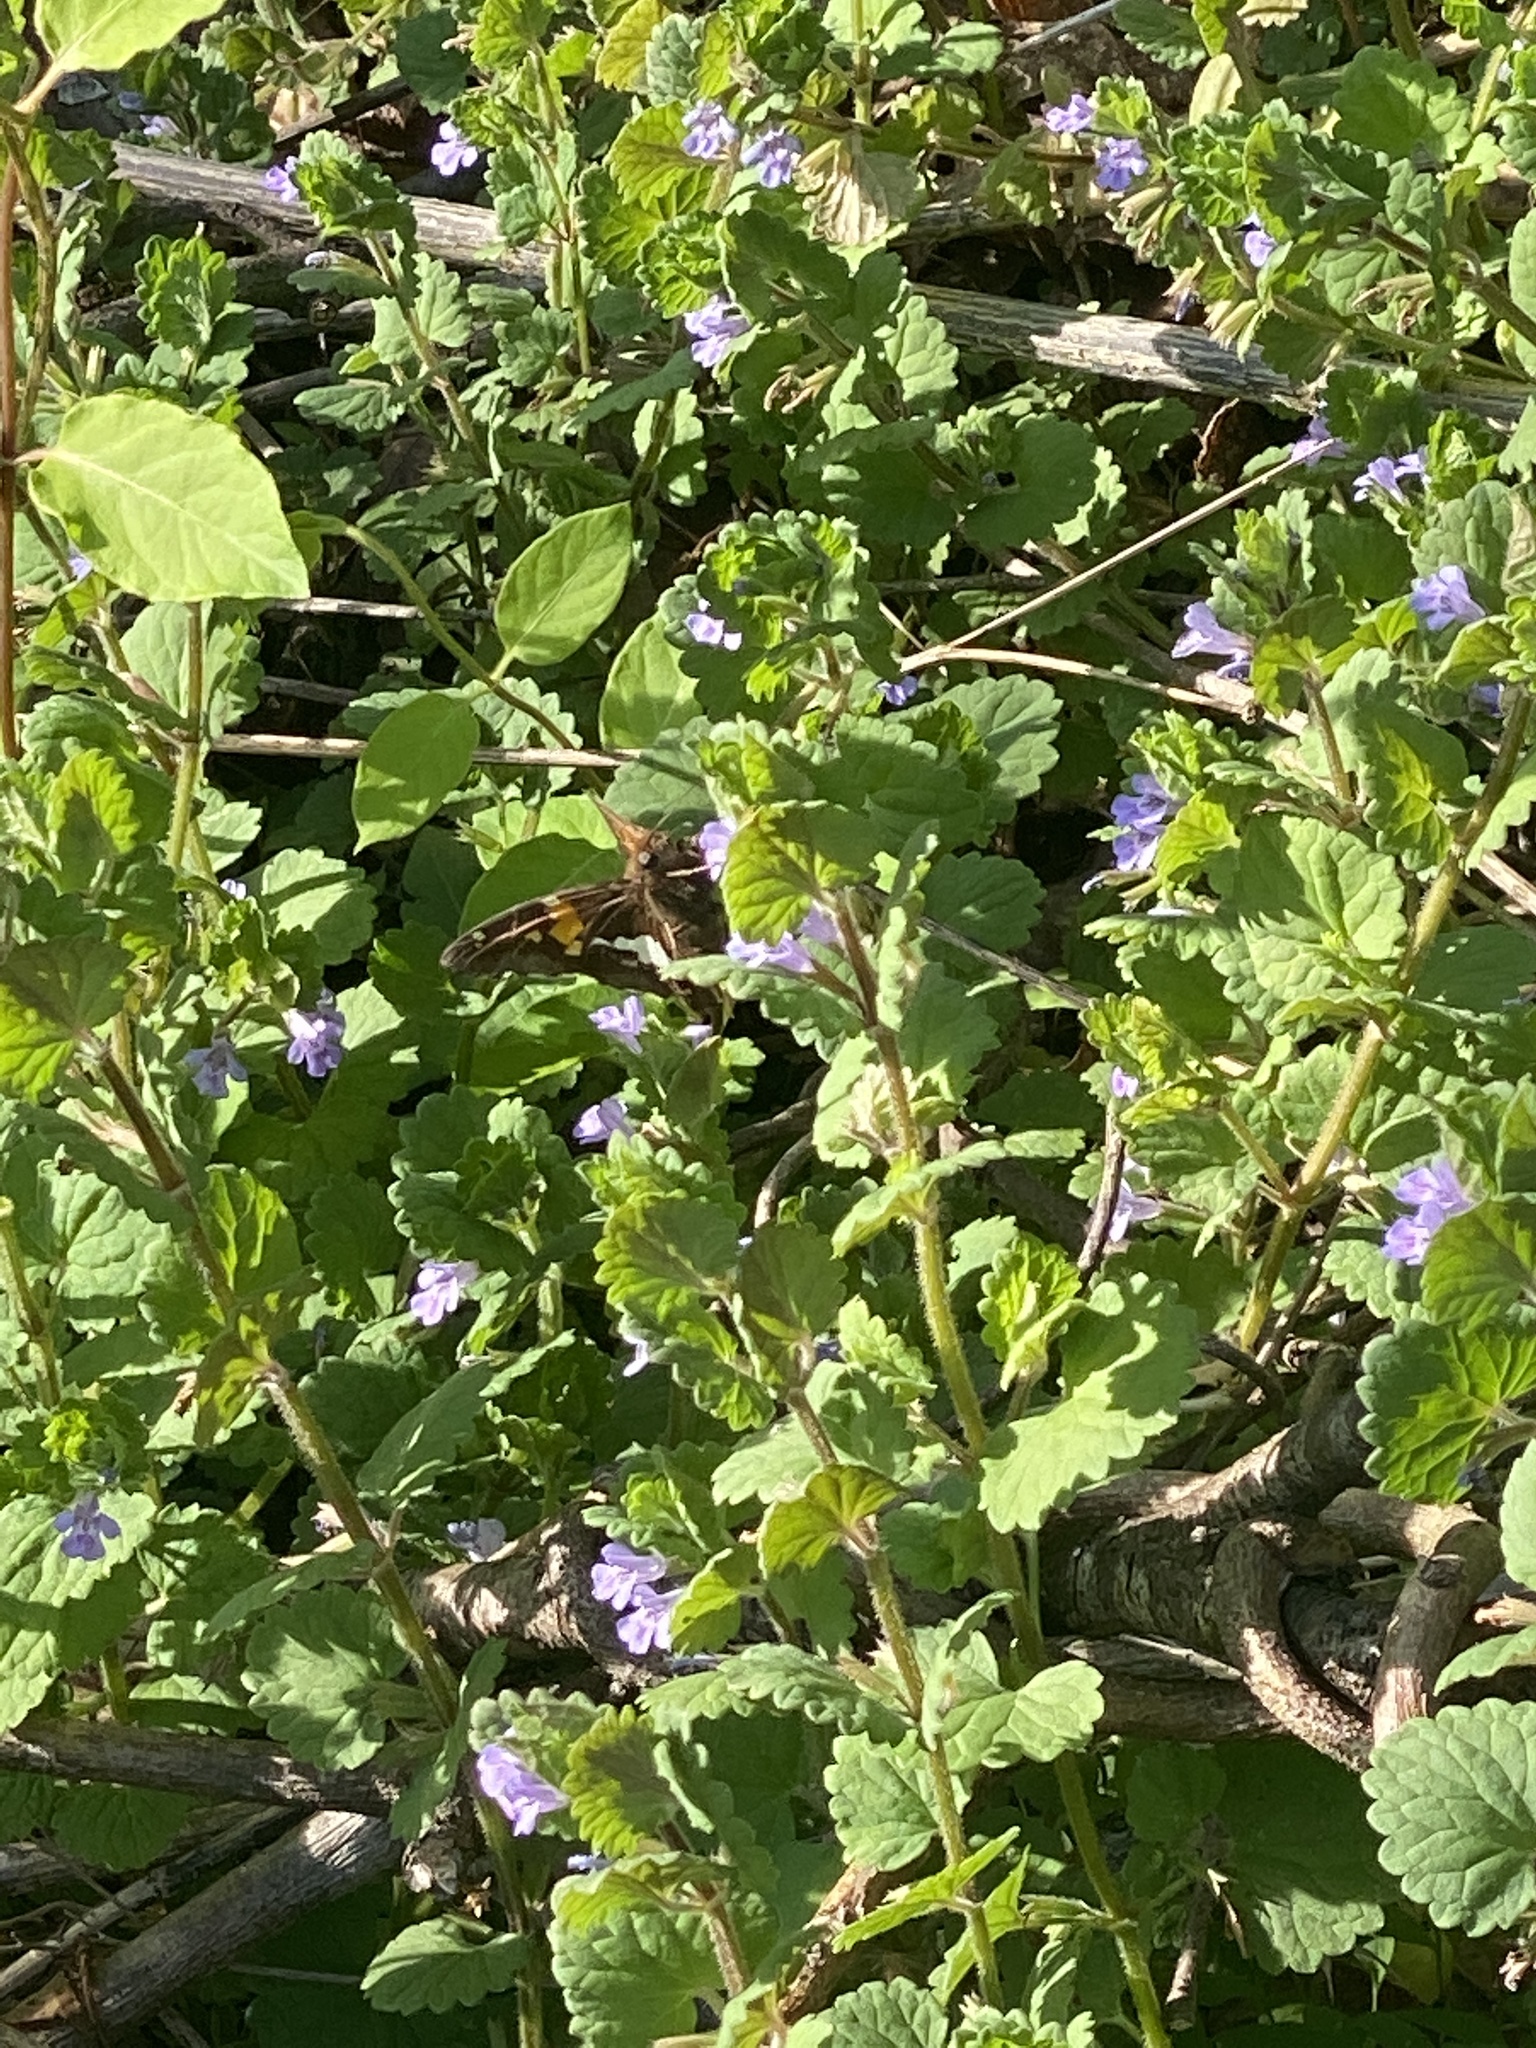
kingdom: Animalia
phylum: Arthropoda
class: Insecta
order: Lepidoptera
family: Hesperiidae
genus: Epargyreus
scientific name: Epargyreus clarus
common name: Silver-spotted skipper
